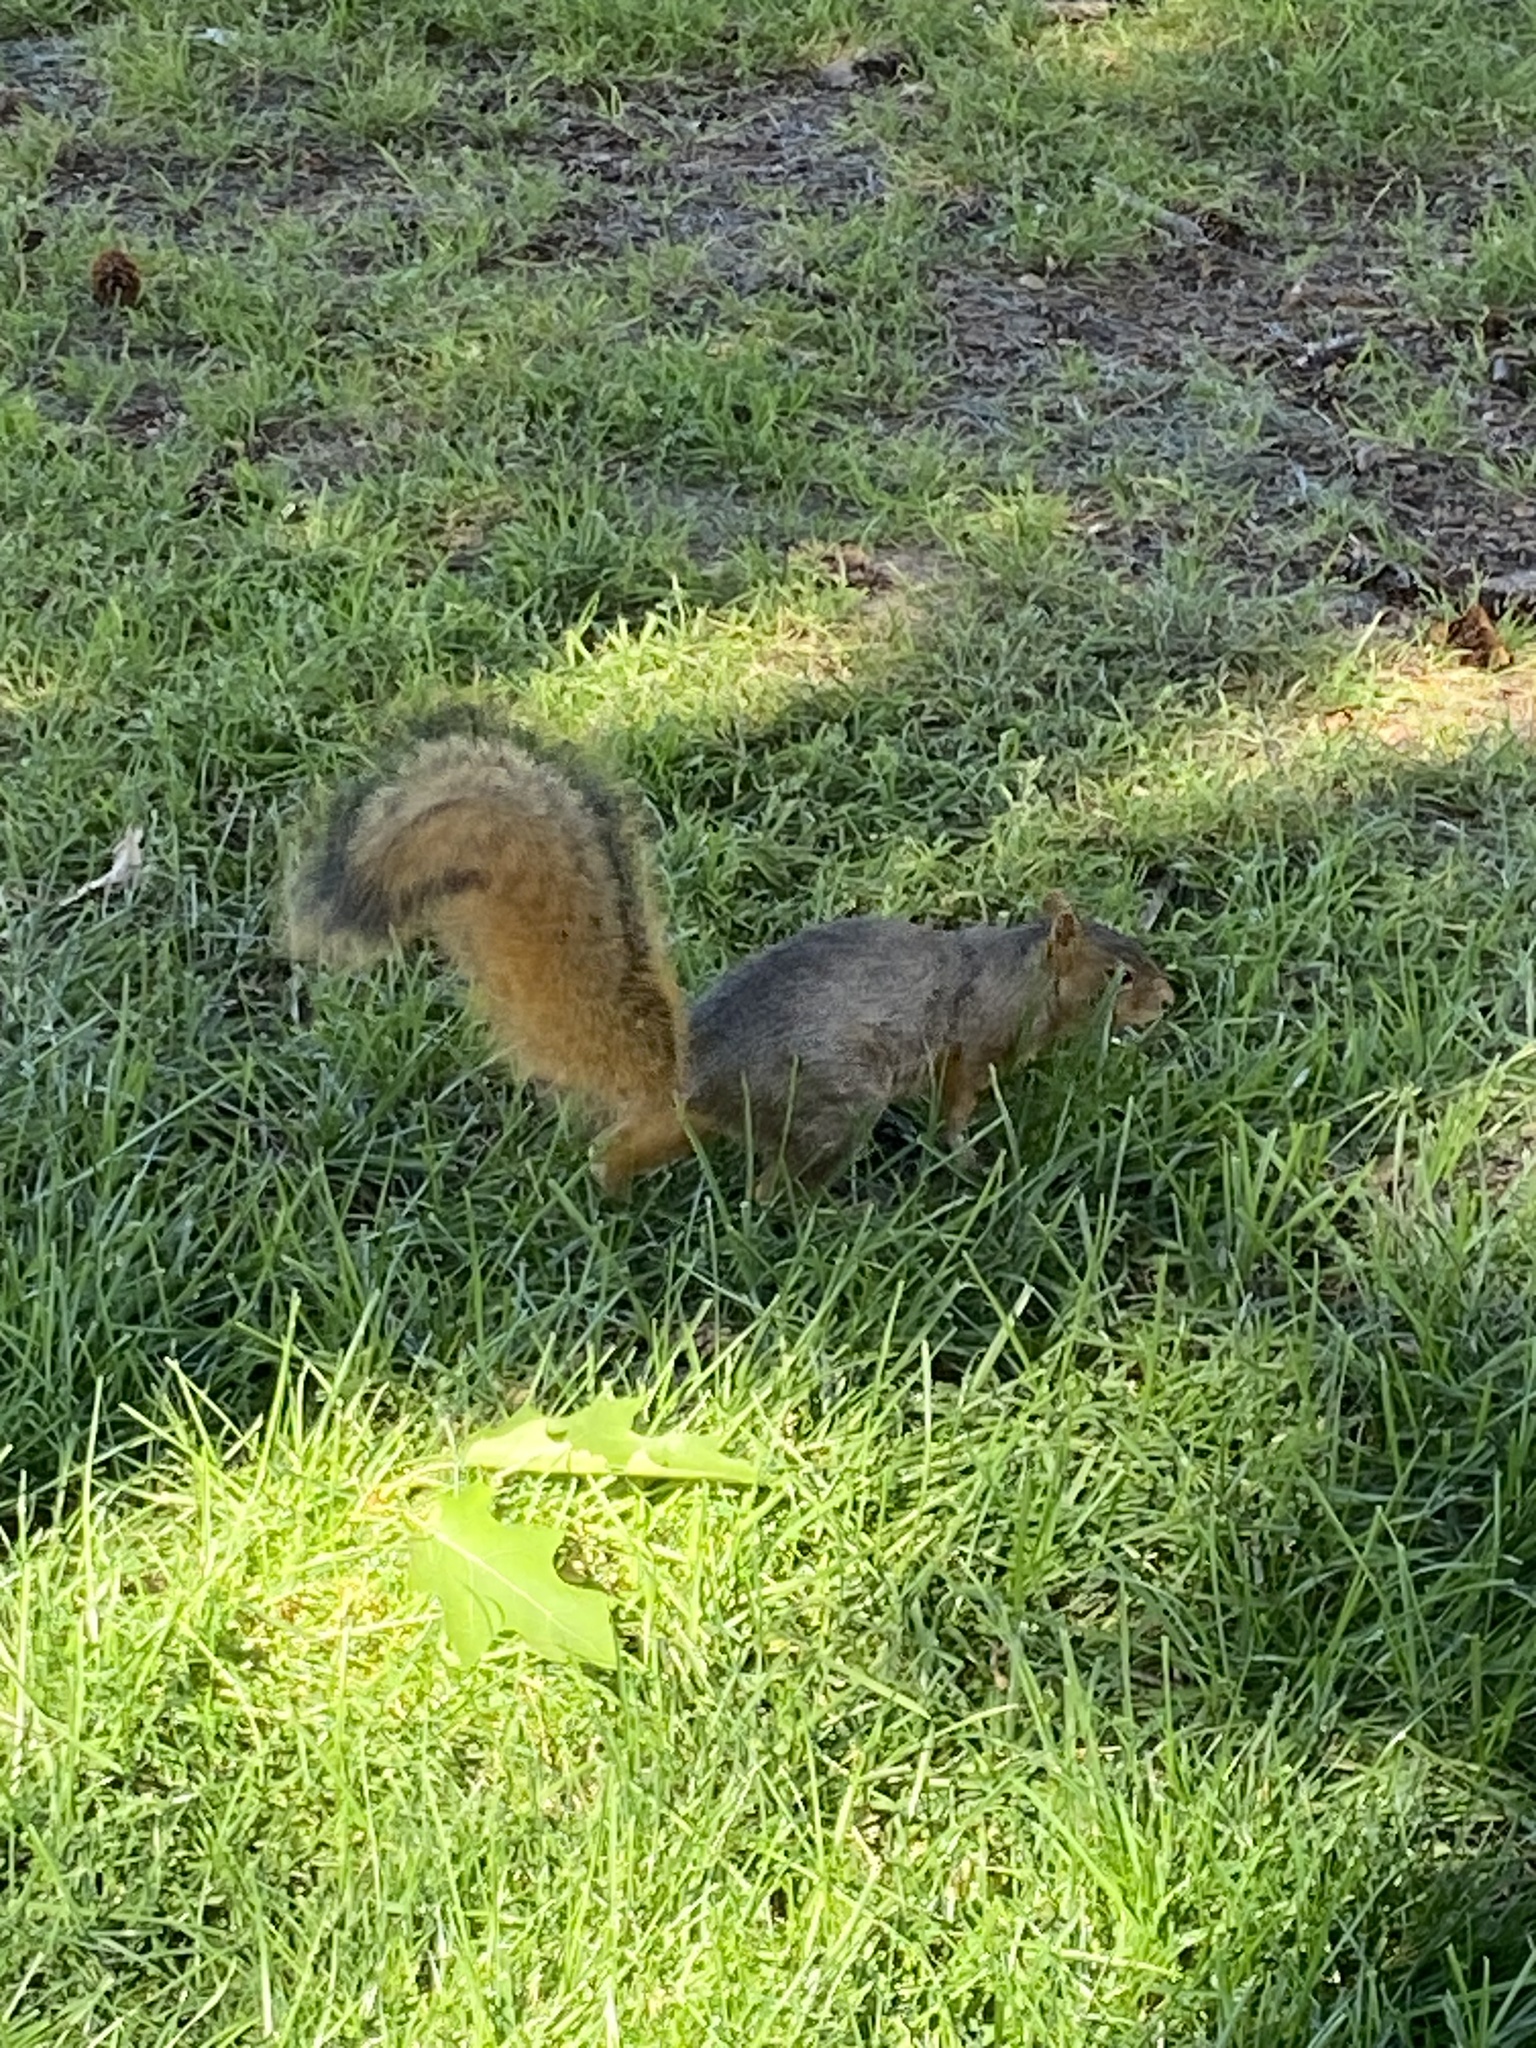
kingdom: Animalia
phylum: Chordata
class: Mammalia
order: Rodentia
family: Sciuridae
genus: Sciurus
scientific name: Sciurus niger
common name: Fox squirrel
